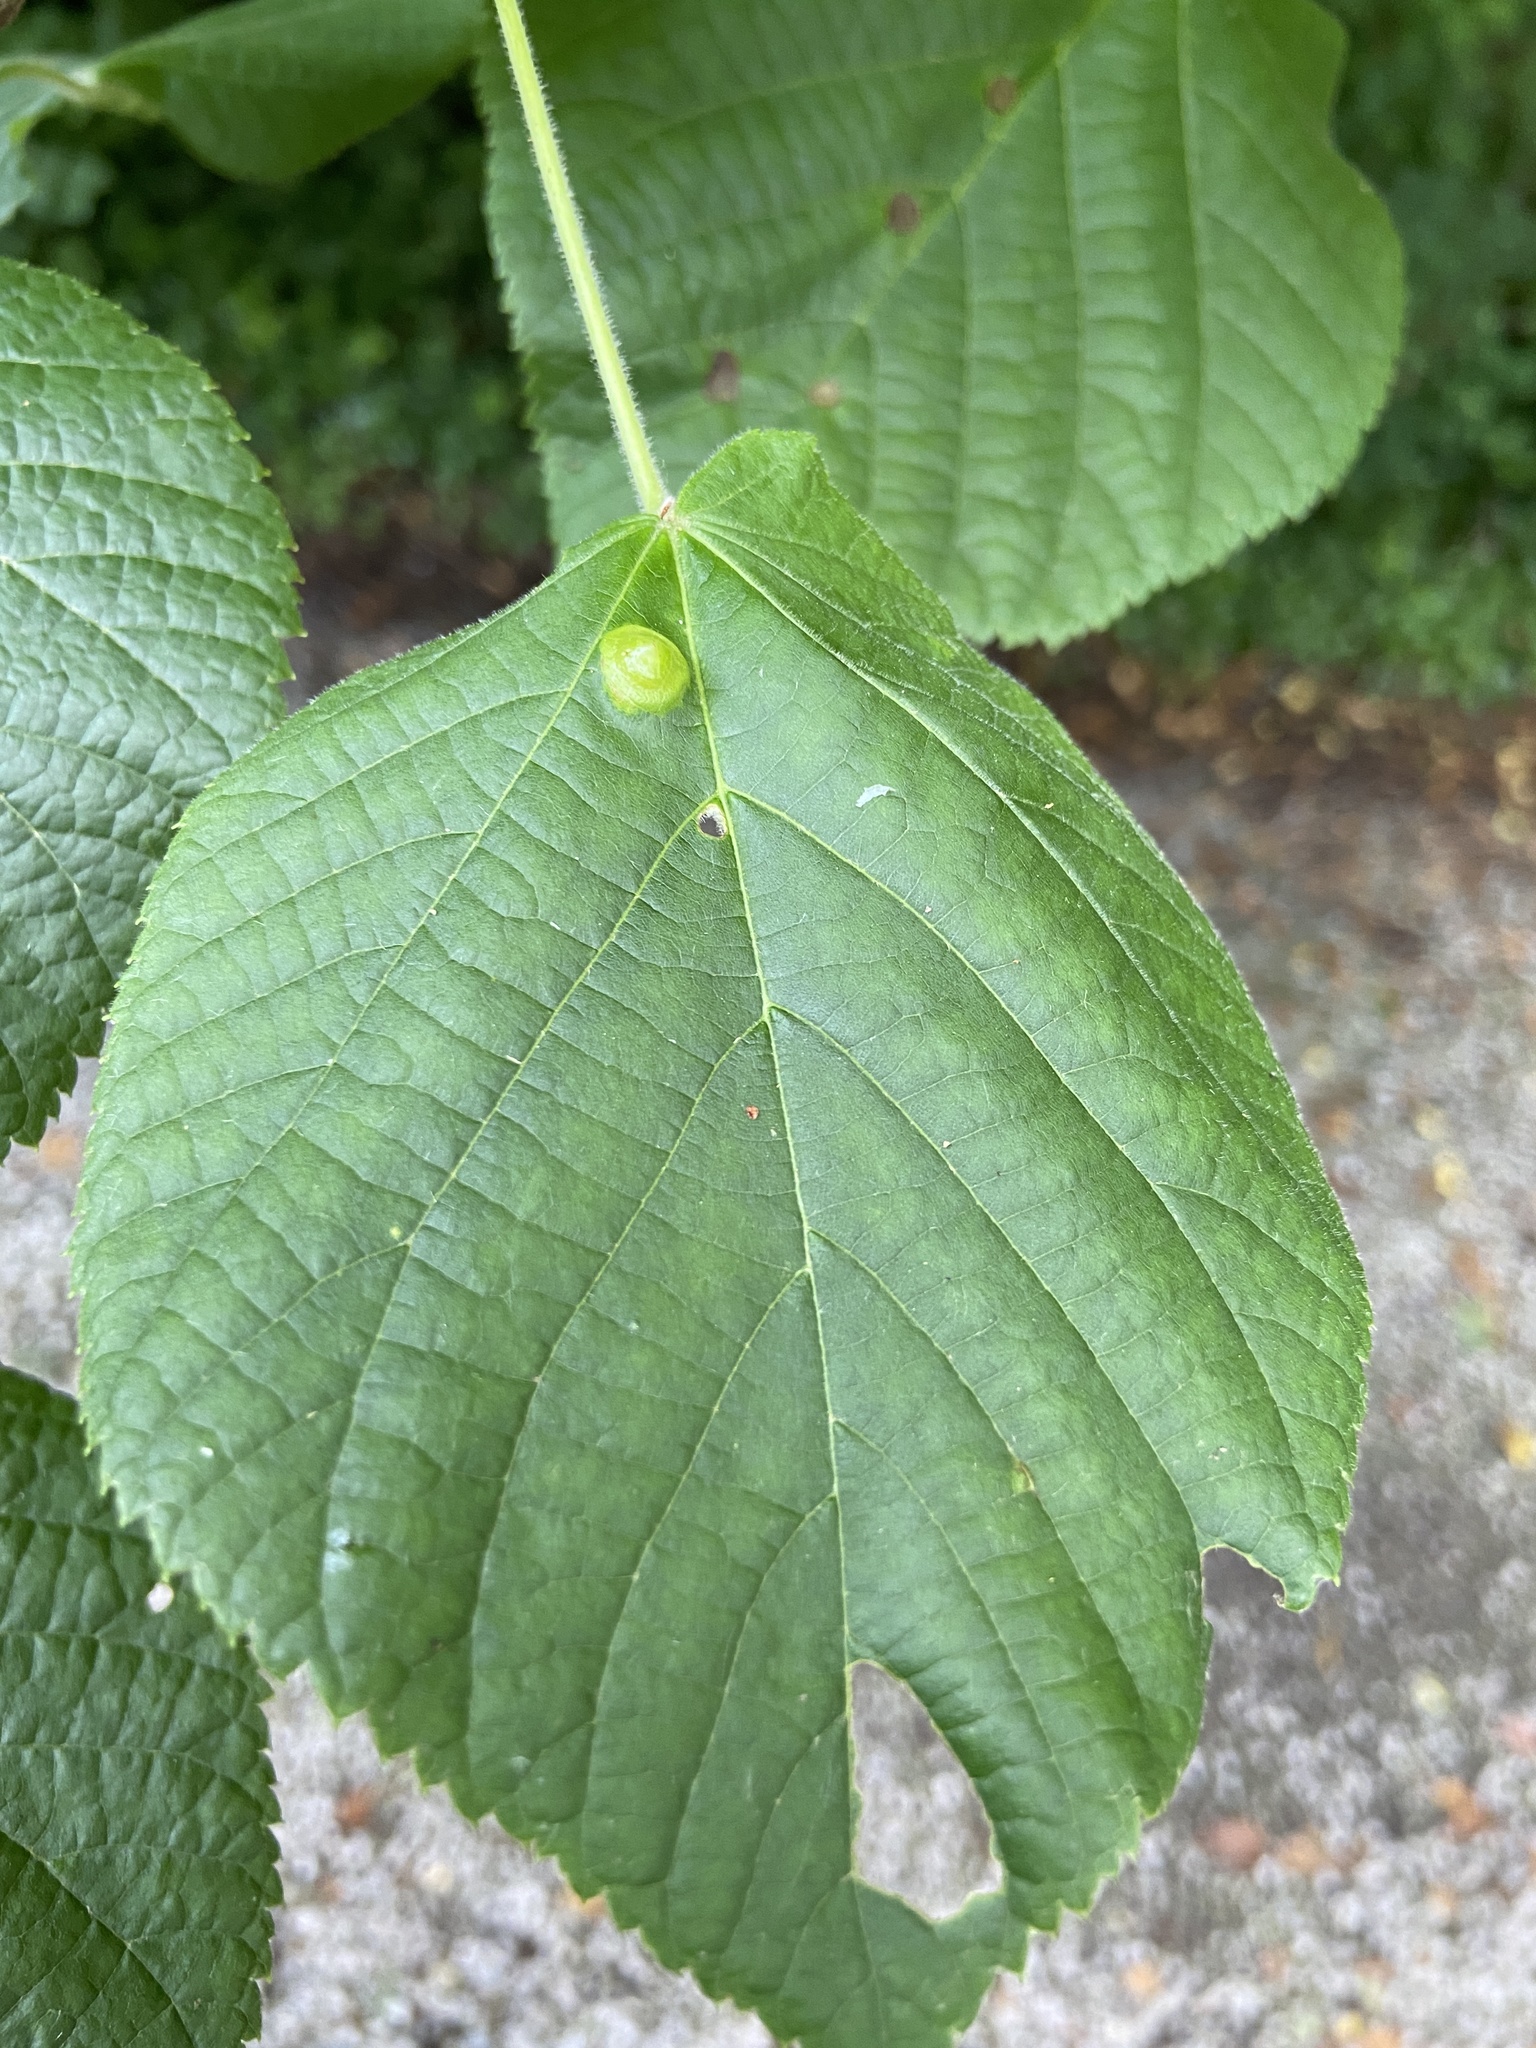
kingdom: Animalia
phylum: Arthropoda
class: Insecta
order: Diptera
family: Cecidomyiidae
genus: Didymomyia
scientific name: Didymomyia tiliacea
